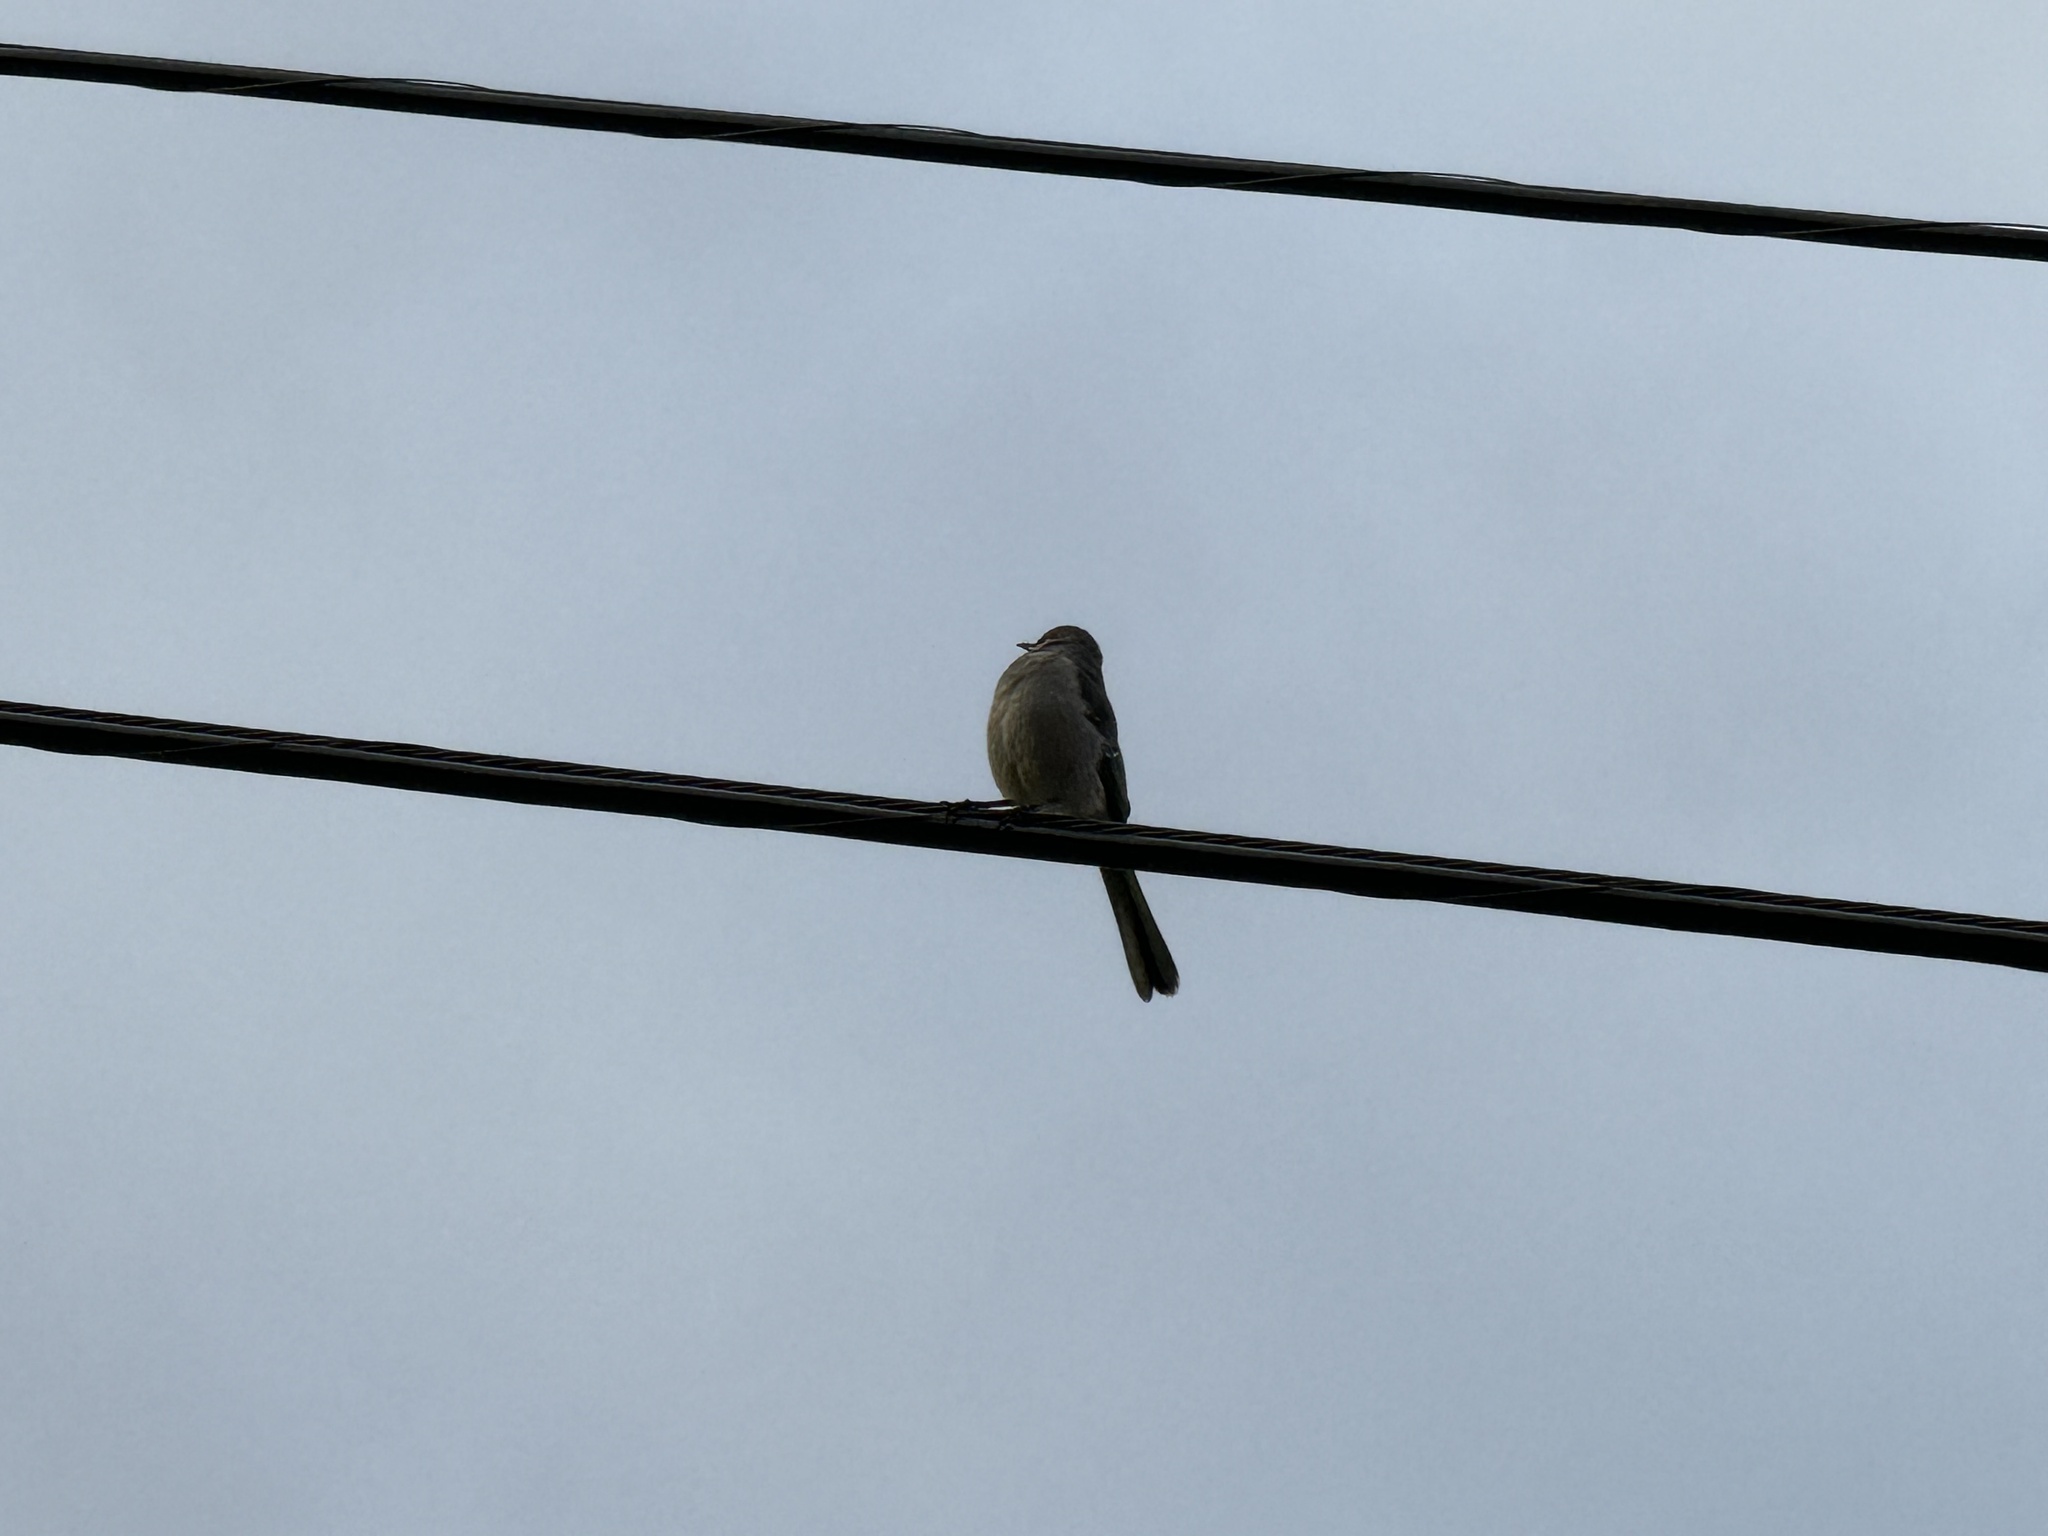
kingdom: Animalia
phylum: Chordata
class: Aves
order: Passeriformes
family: Mimidae
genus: Mimus
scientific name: Mimus polyglottos
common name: Northern mockingbird
